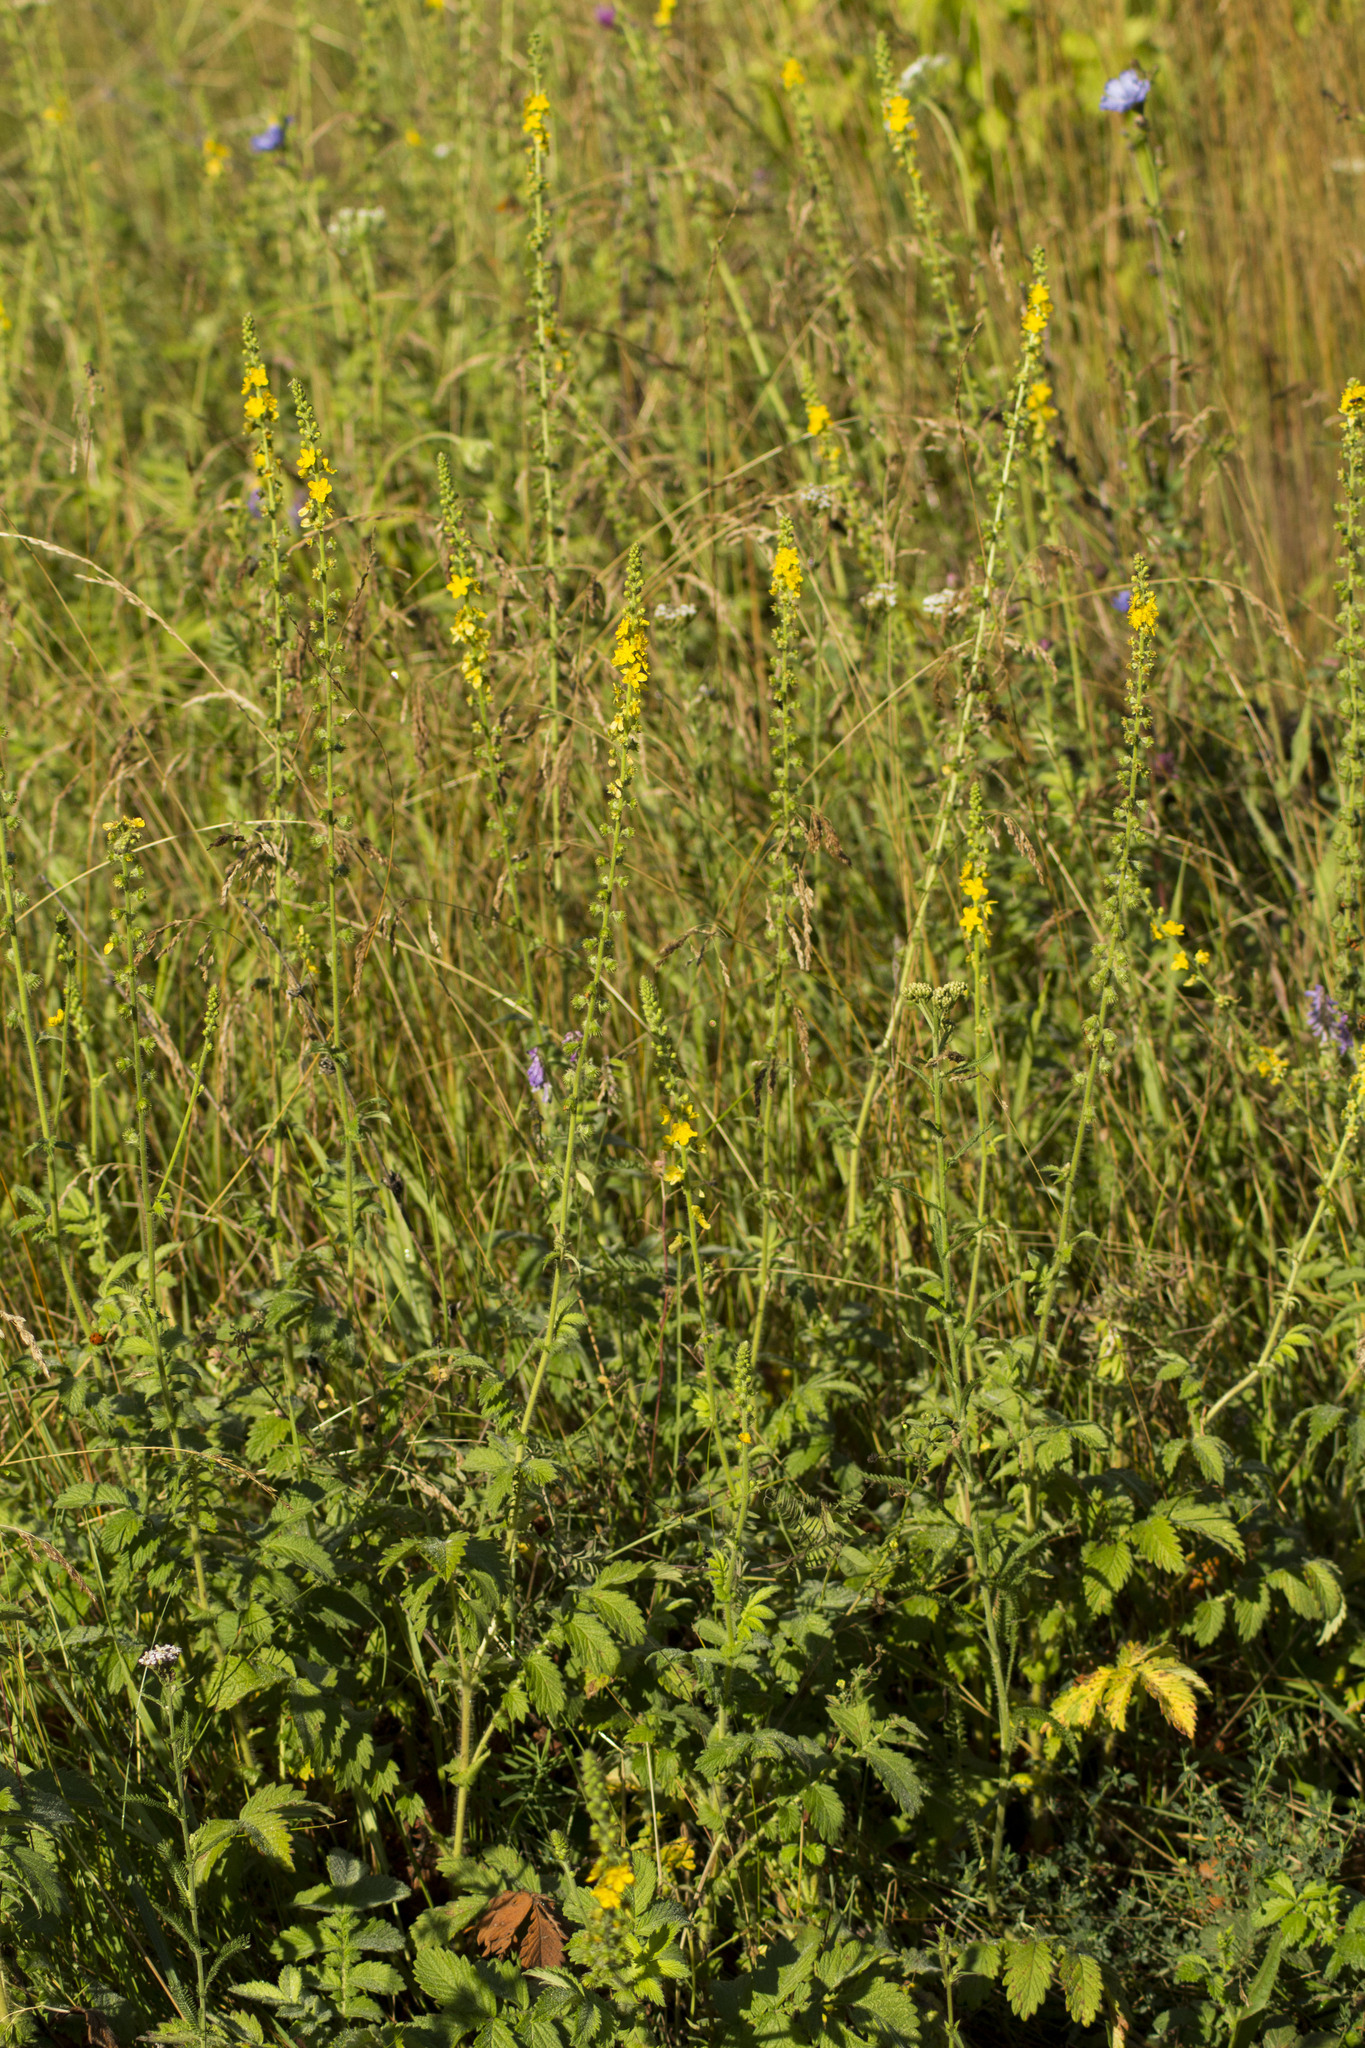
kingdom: Plantae
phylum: Tracheophyta
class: Magnoliopsida
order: Rosales
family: Rosaceae
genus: Agrimonia
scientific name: Agrimonia eupatoria
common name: Agrimony
